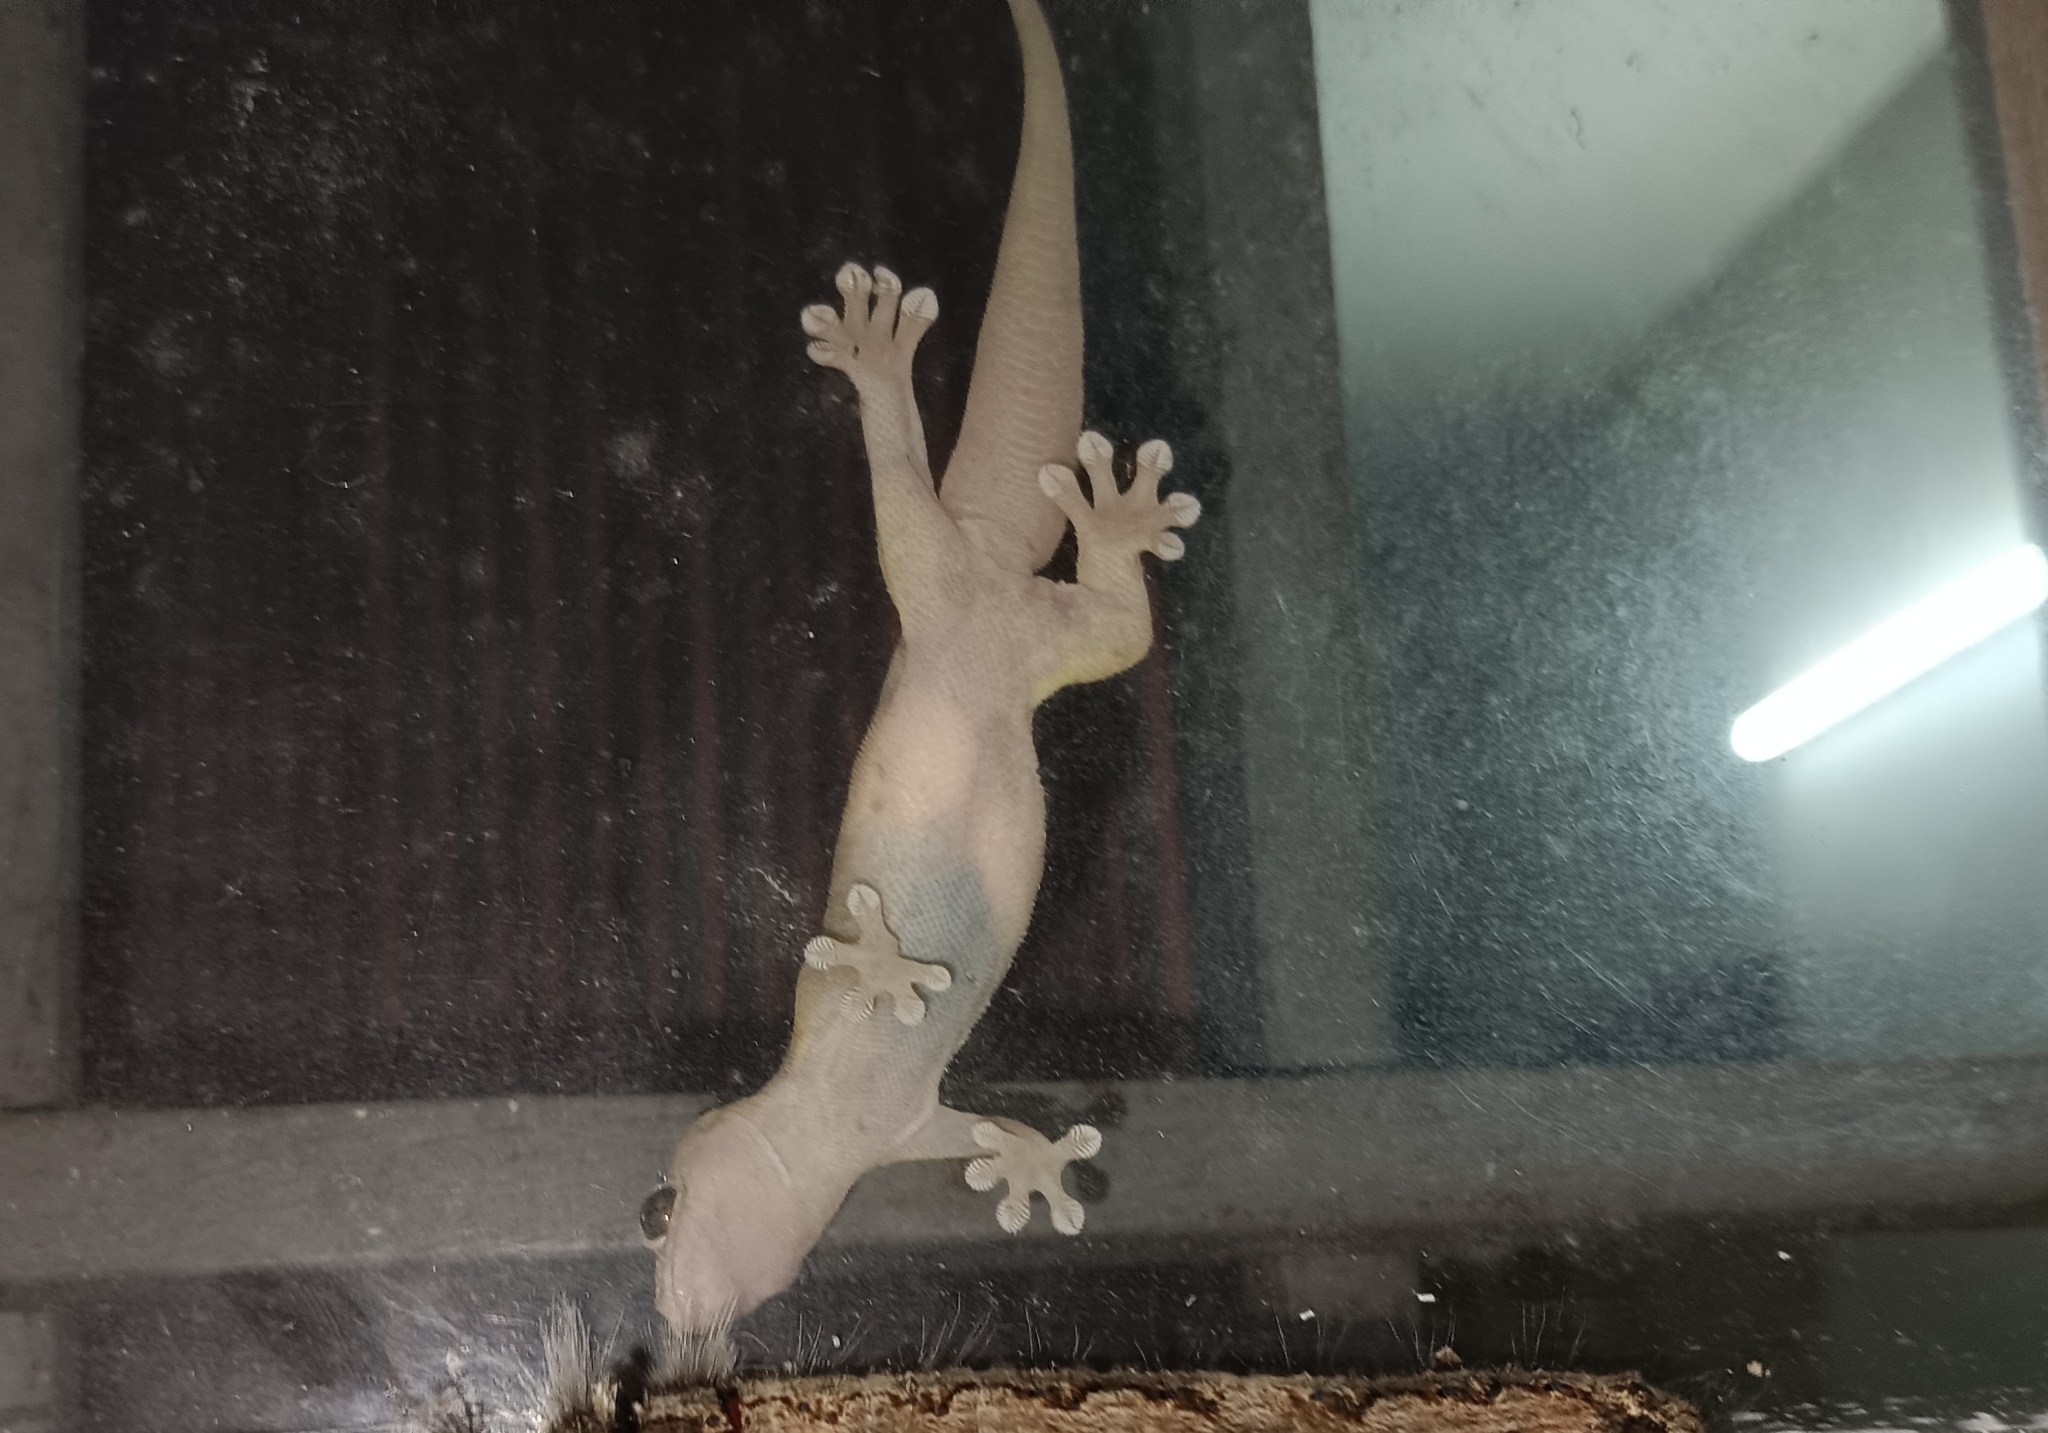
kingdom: Animalia
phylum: Chordata
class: Squamata
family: Gekkonidae
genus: Gehyra
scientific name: Gehyra mutilata
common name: Stump-toed gecko
